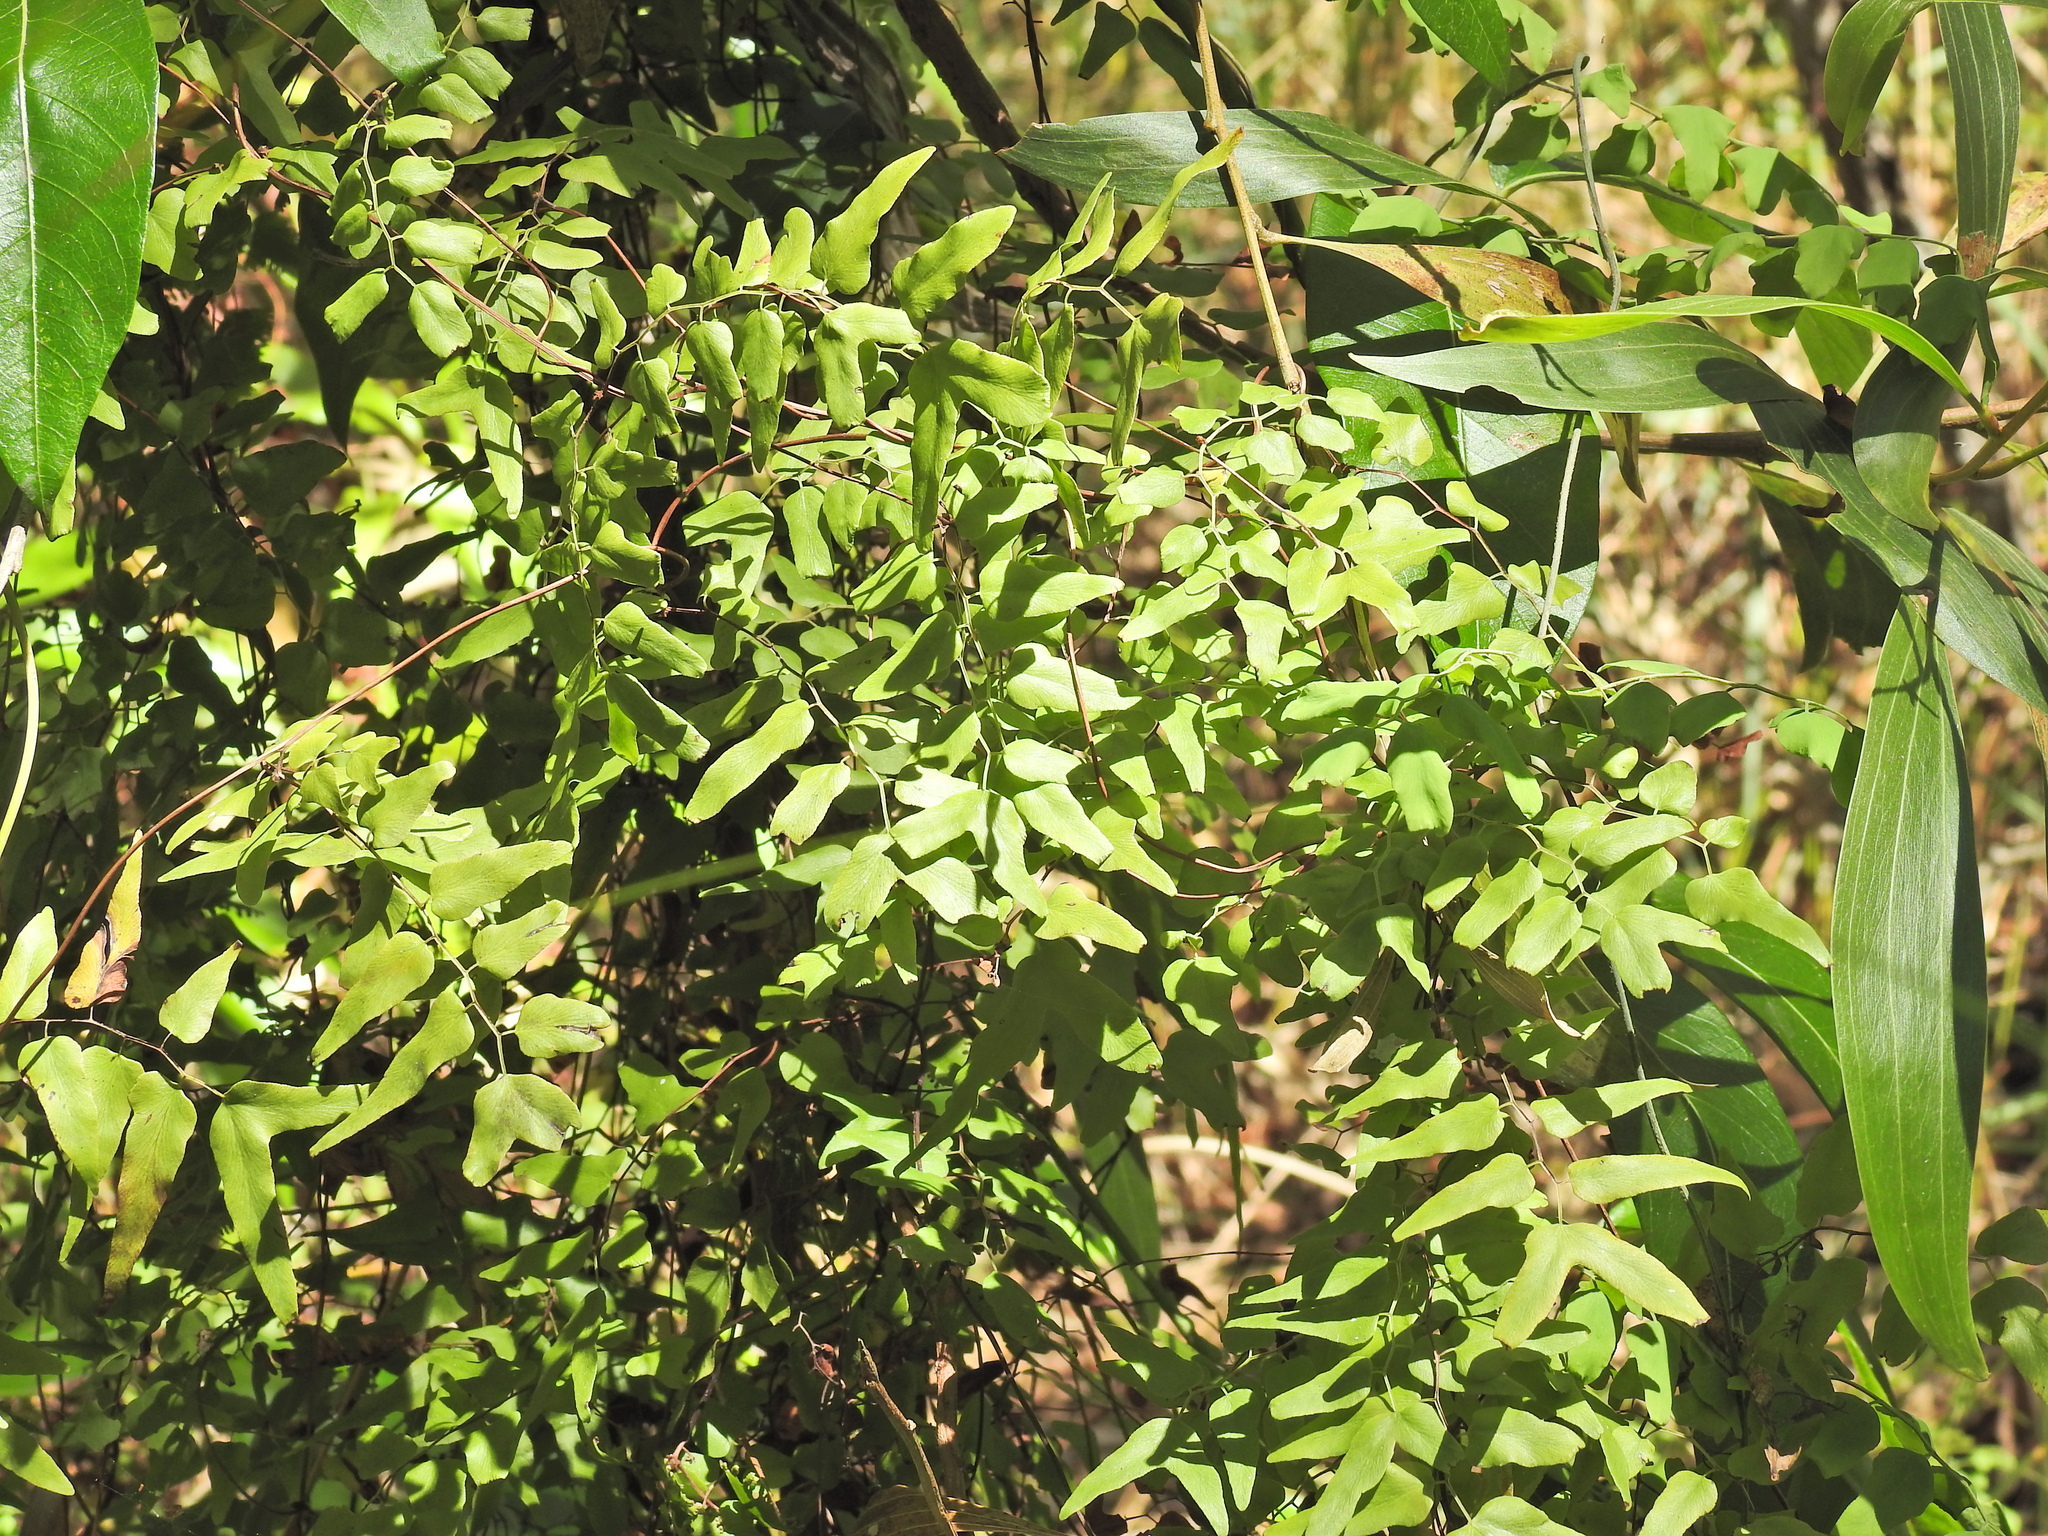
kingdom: Plantae
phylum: Tracheophyta
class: Polypodiopsida
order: Schizaeales
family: Lygodiaceae
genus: Lygodium
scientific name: Lygodium microphyllum
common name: Small-leaf climbing fern
